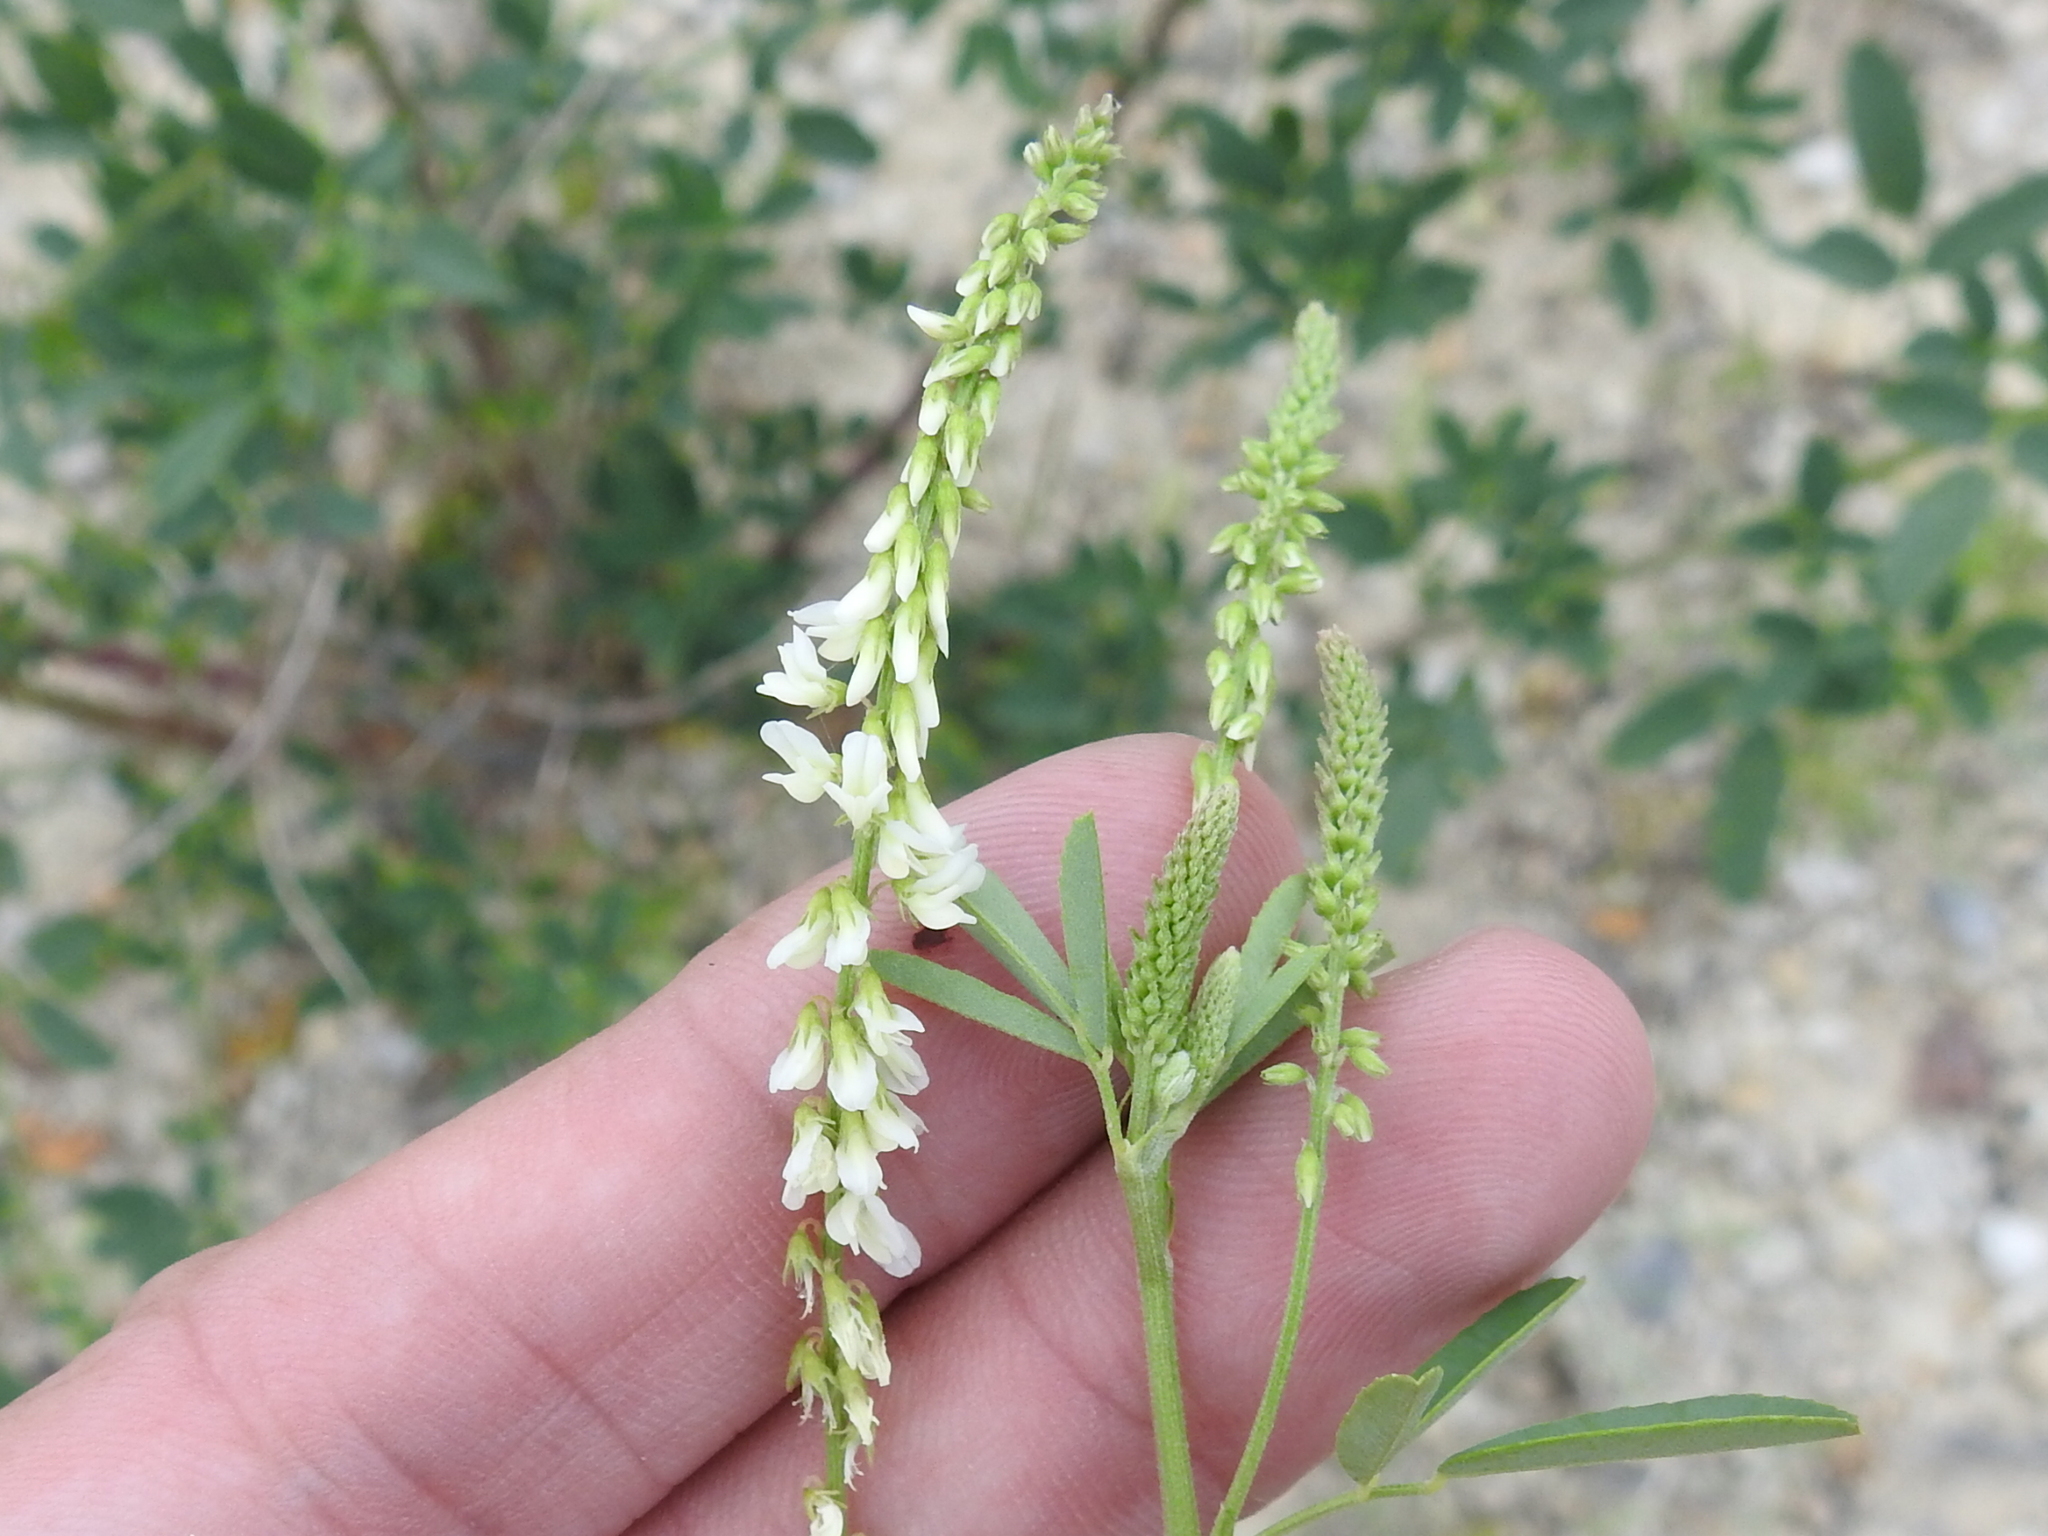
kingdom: Plantae
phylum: Tracheophyta
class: Magnoliopsida
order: Fabales
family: Fabaceae
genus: Melilotus
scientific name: Melilotus albus
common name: White melilot
